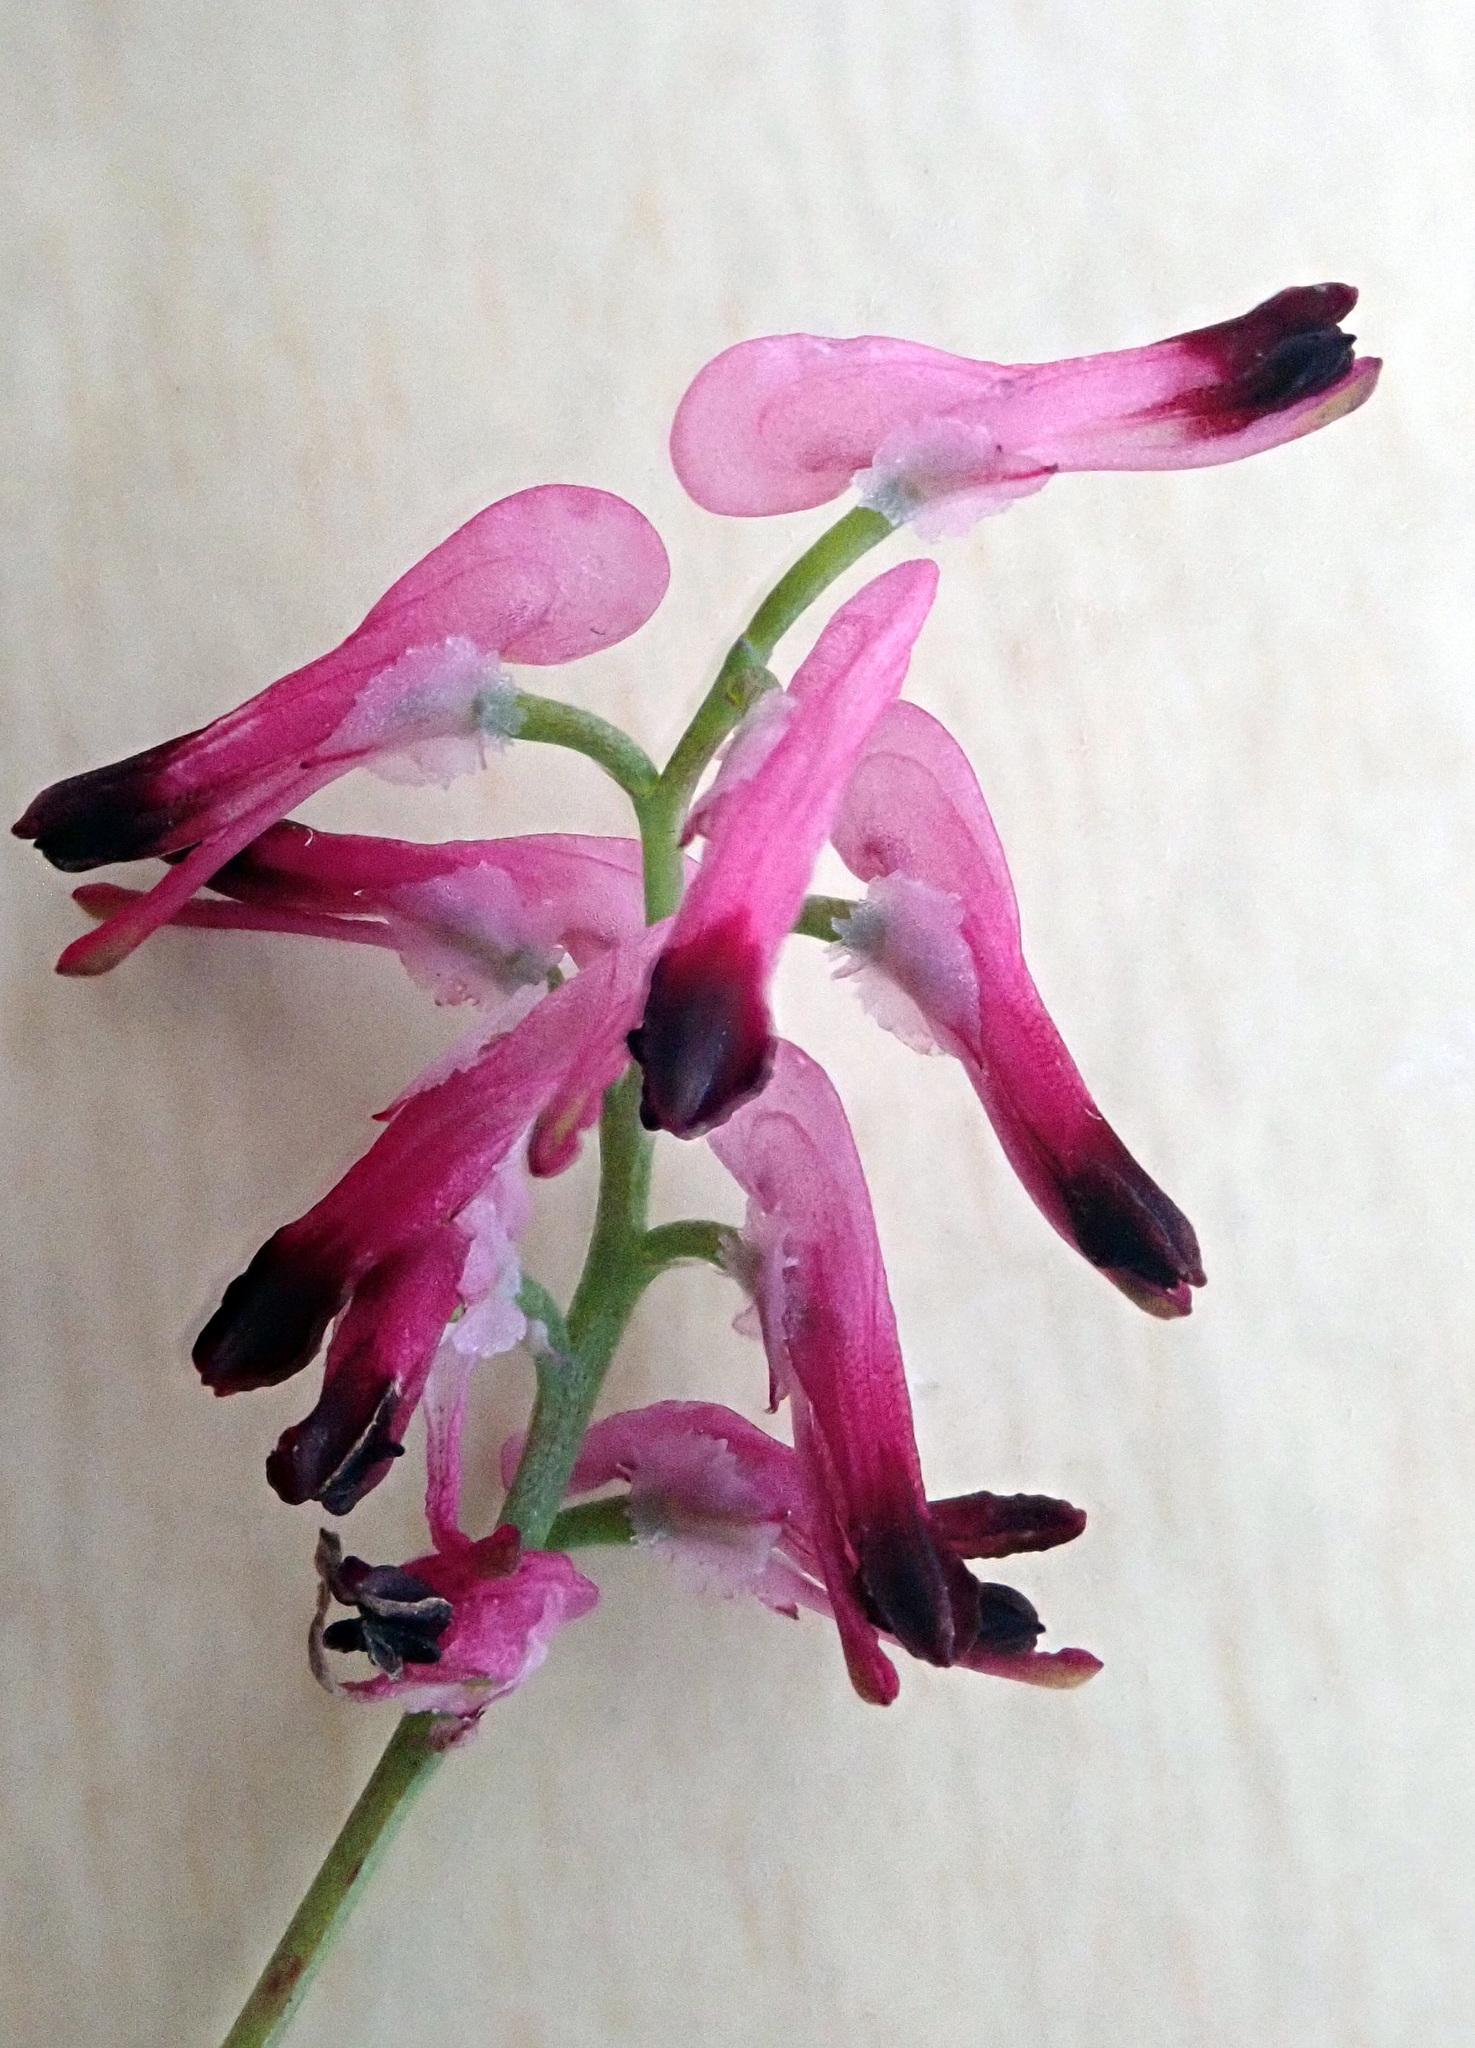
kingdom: Plantae
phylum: Tracheophyta
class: Magnoliopsida
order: Ranunculales
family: Papaveraceae
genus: Fumaria
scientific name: Fumaria muralis
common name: Common ramping-fumitory
